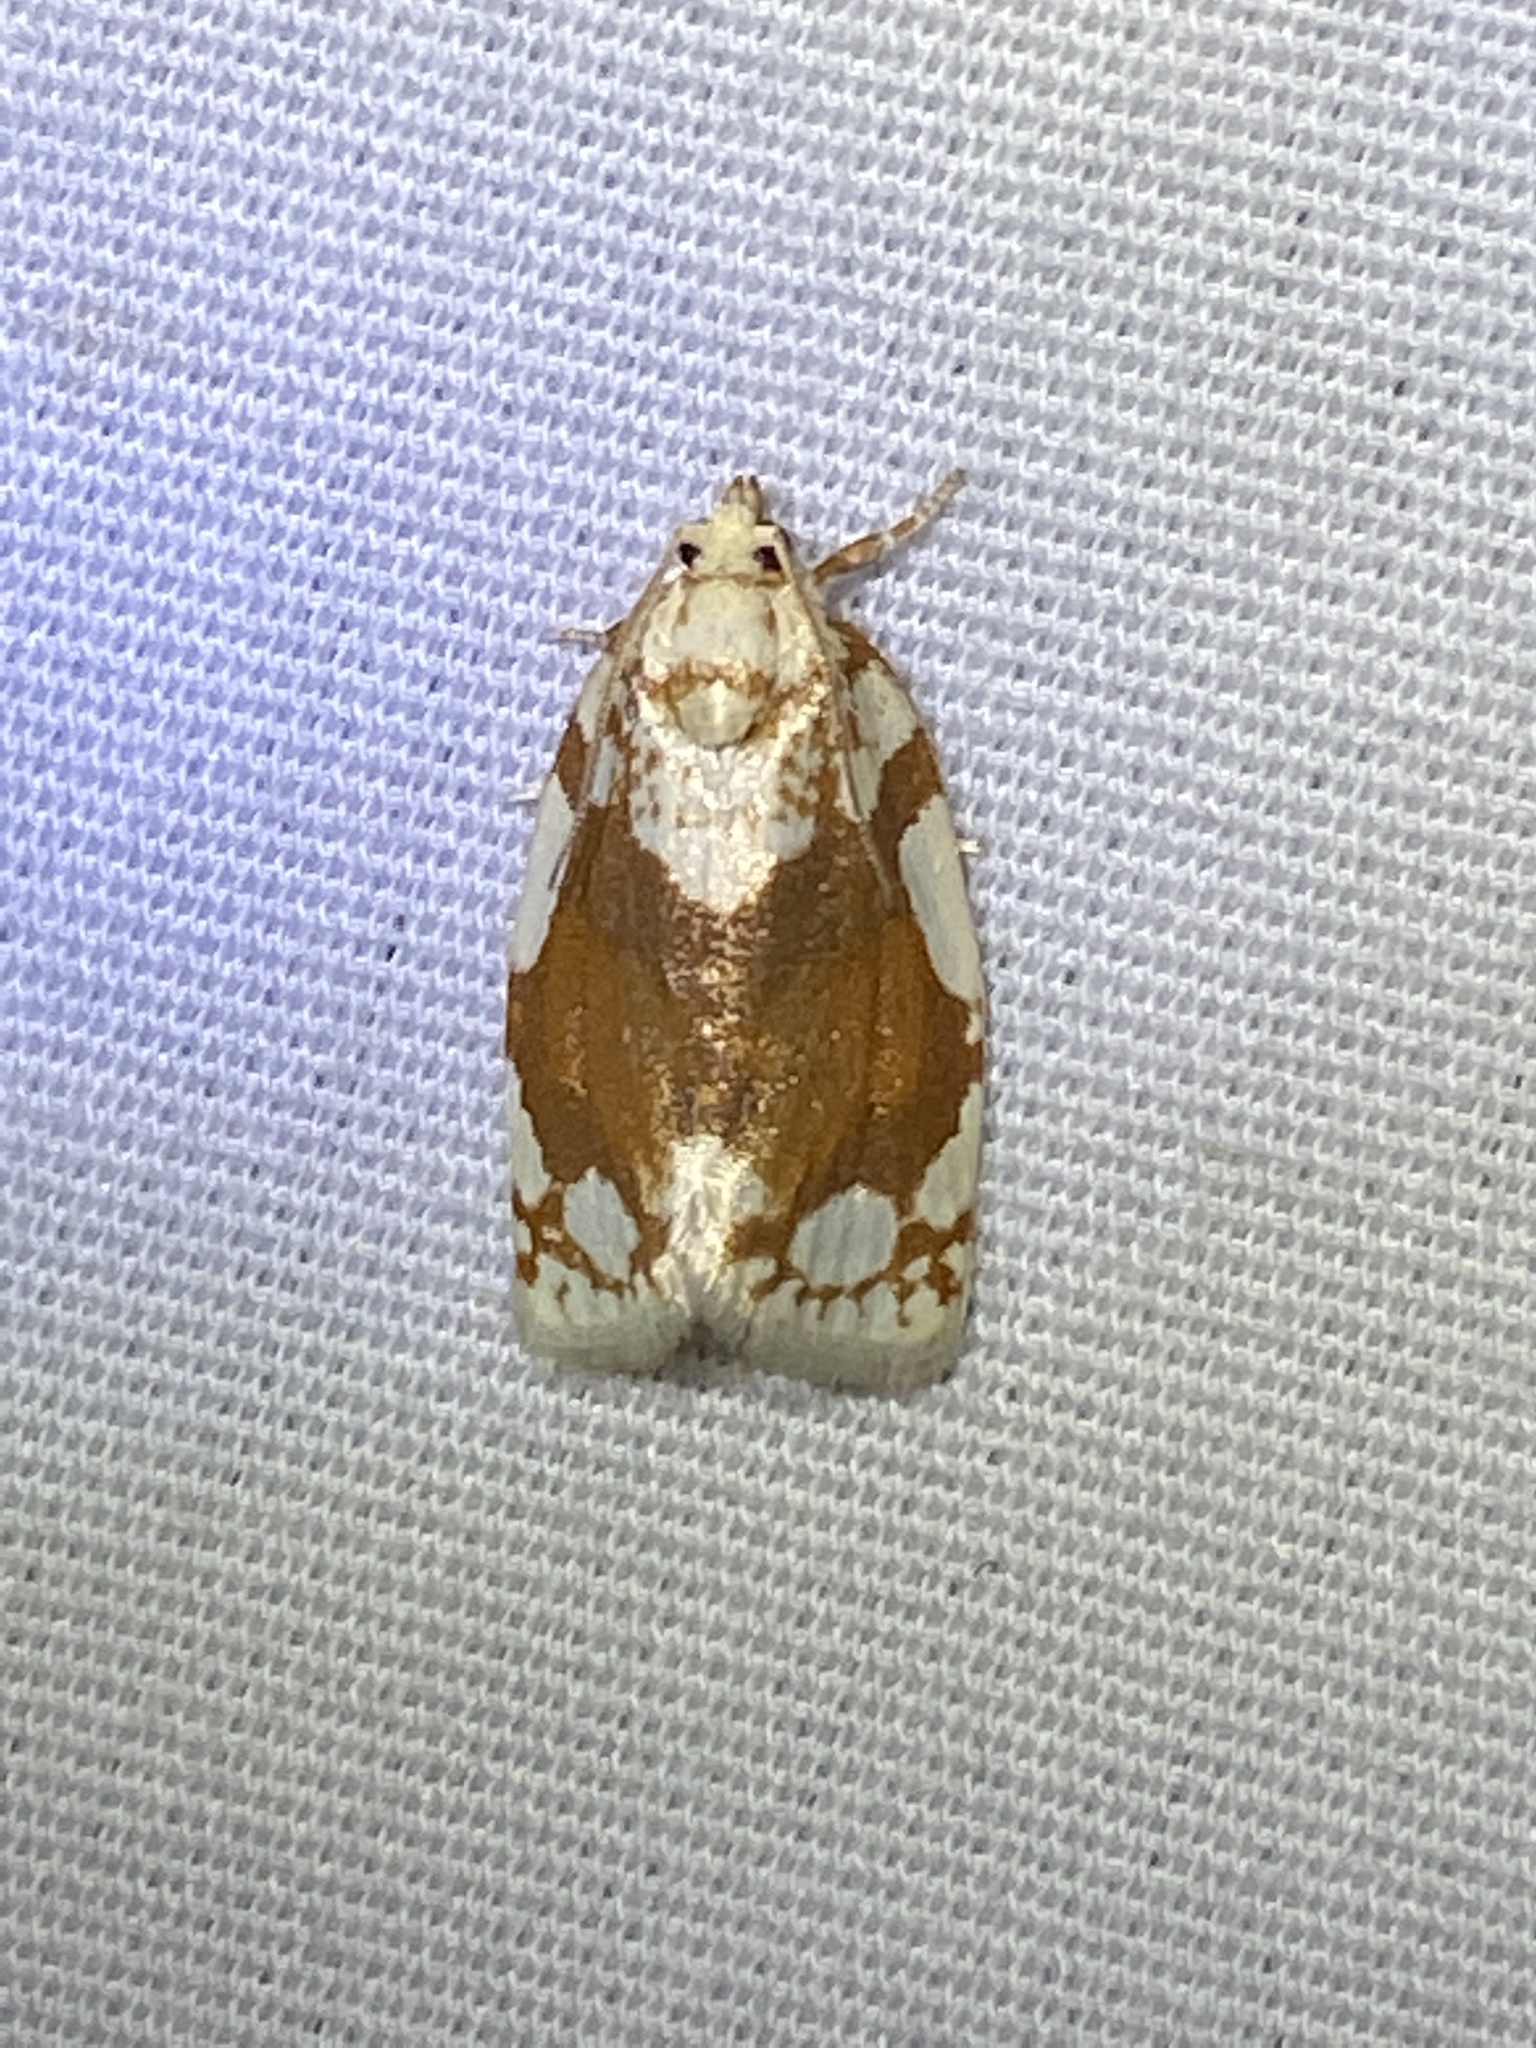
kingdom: Animalia
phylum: Arthropoda
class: Insecta
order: Lepidoptera
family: Tortricidae
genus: Argyrotaenia
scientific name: Argyrotaenia alisellana
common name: White-spotted leafroller moth
